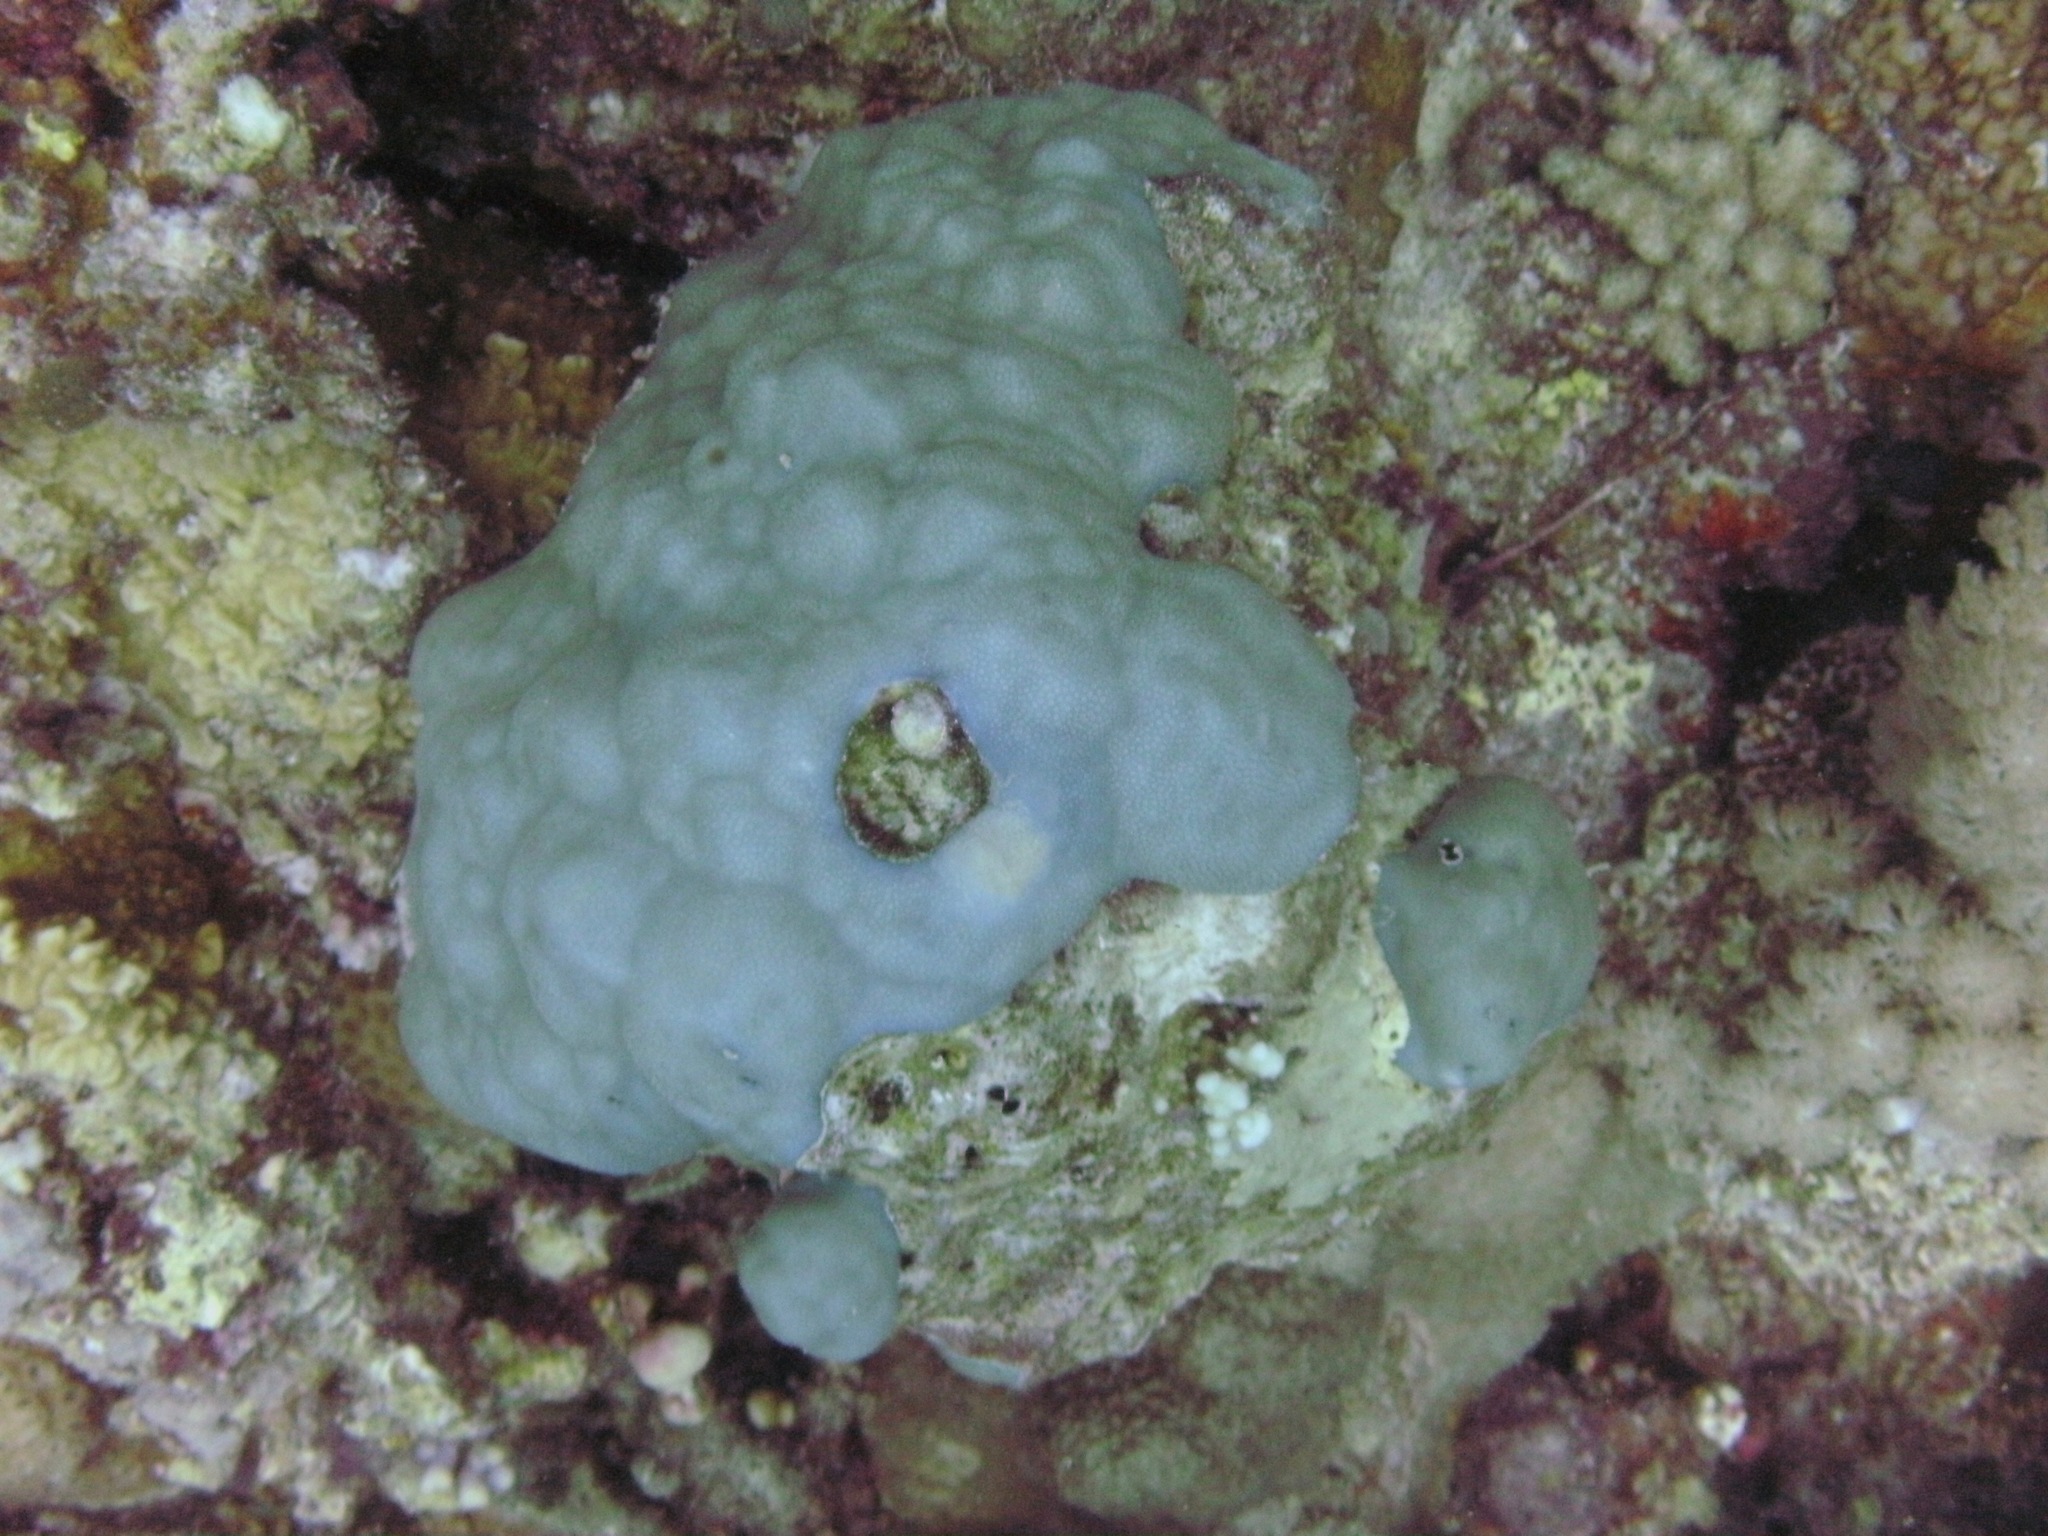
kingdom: Animalia
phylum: Cnidaria
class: Anthozoa
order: Scleractinia
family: Poritidae
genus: Porites
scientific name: Porites
